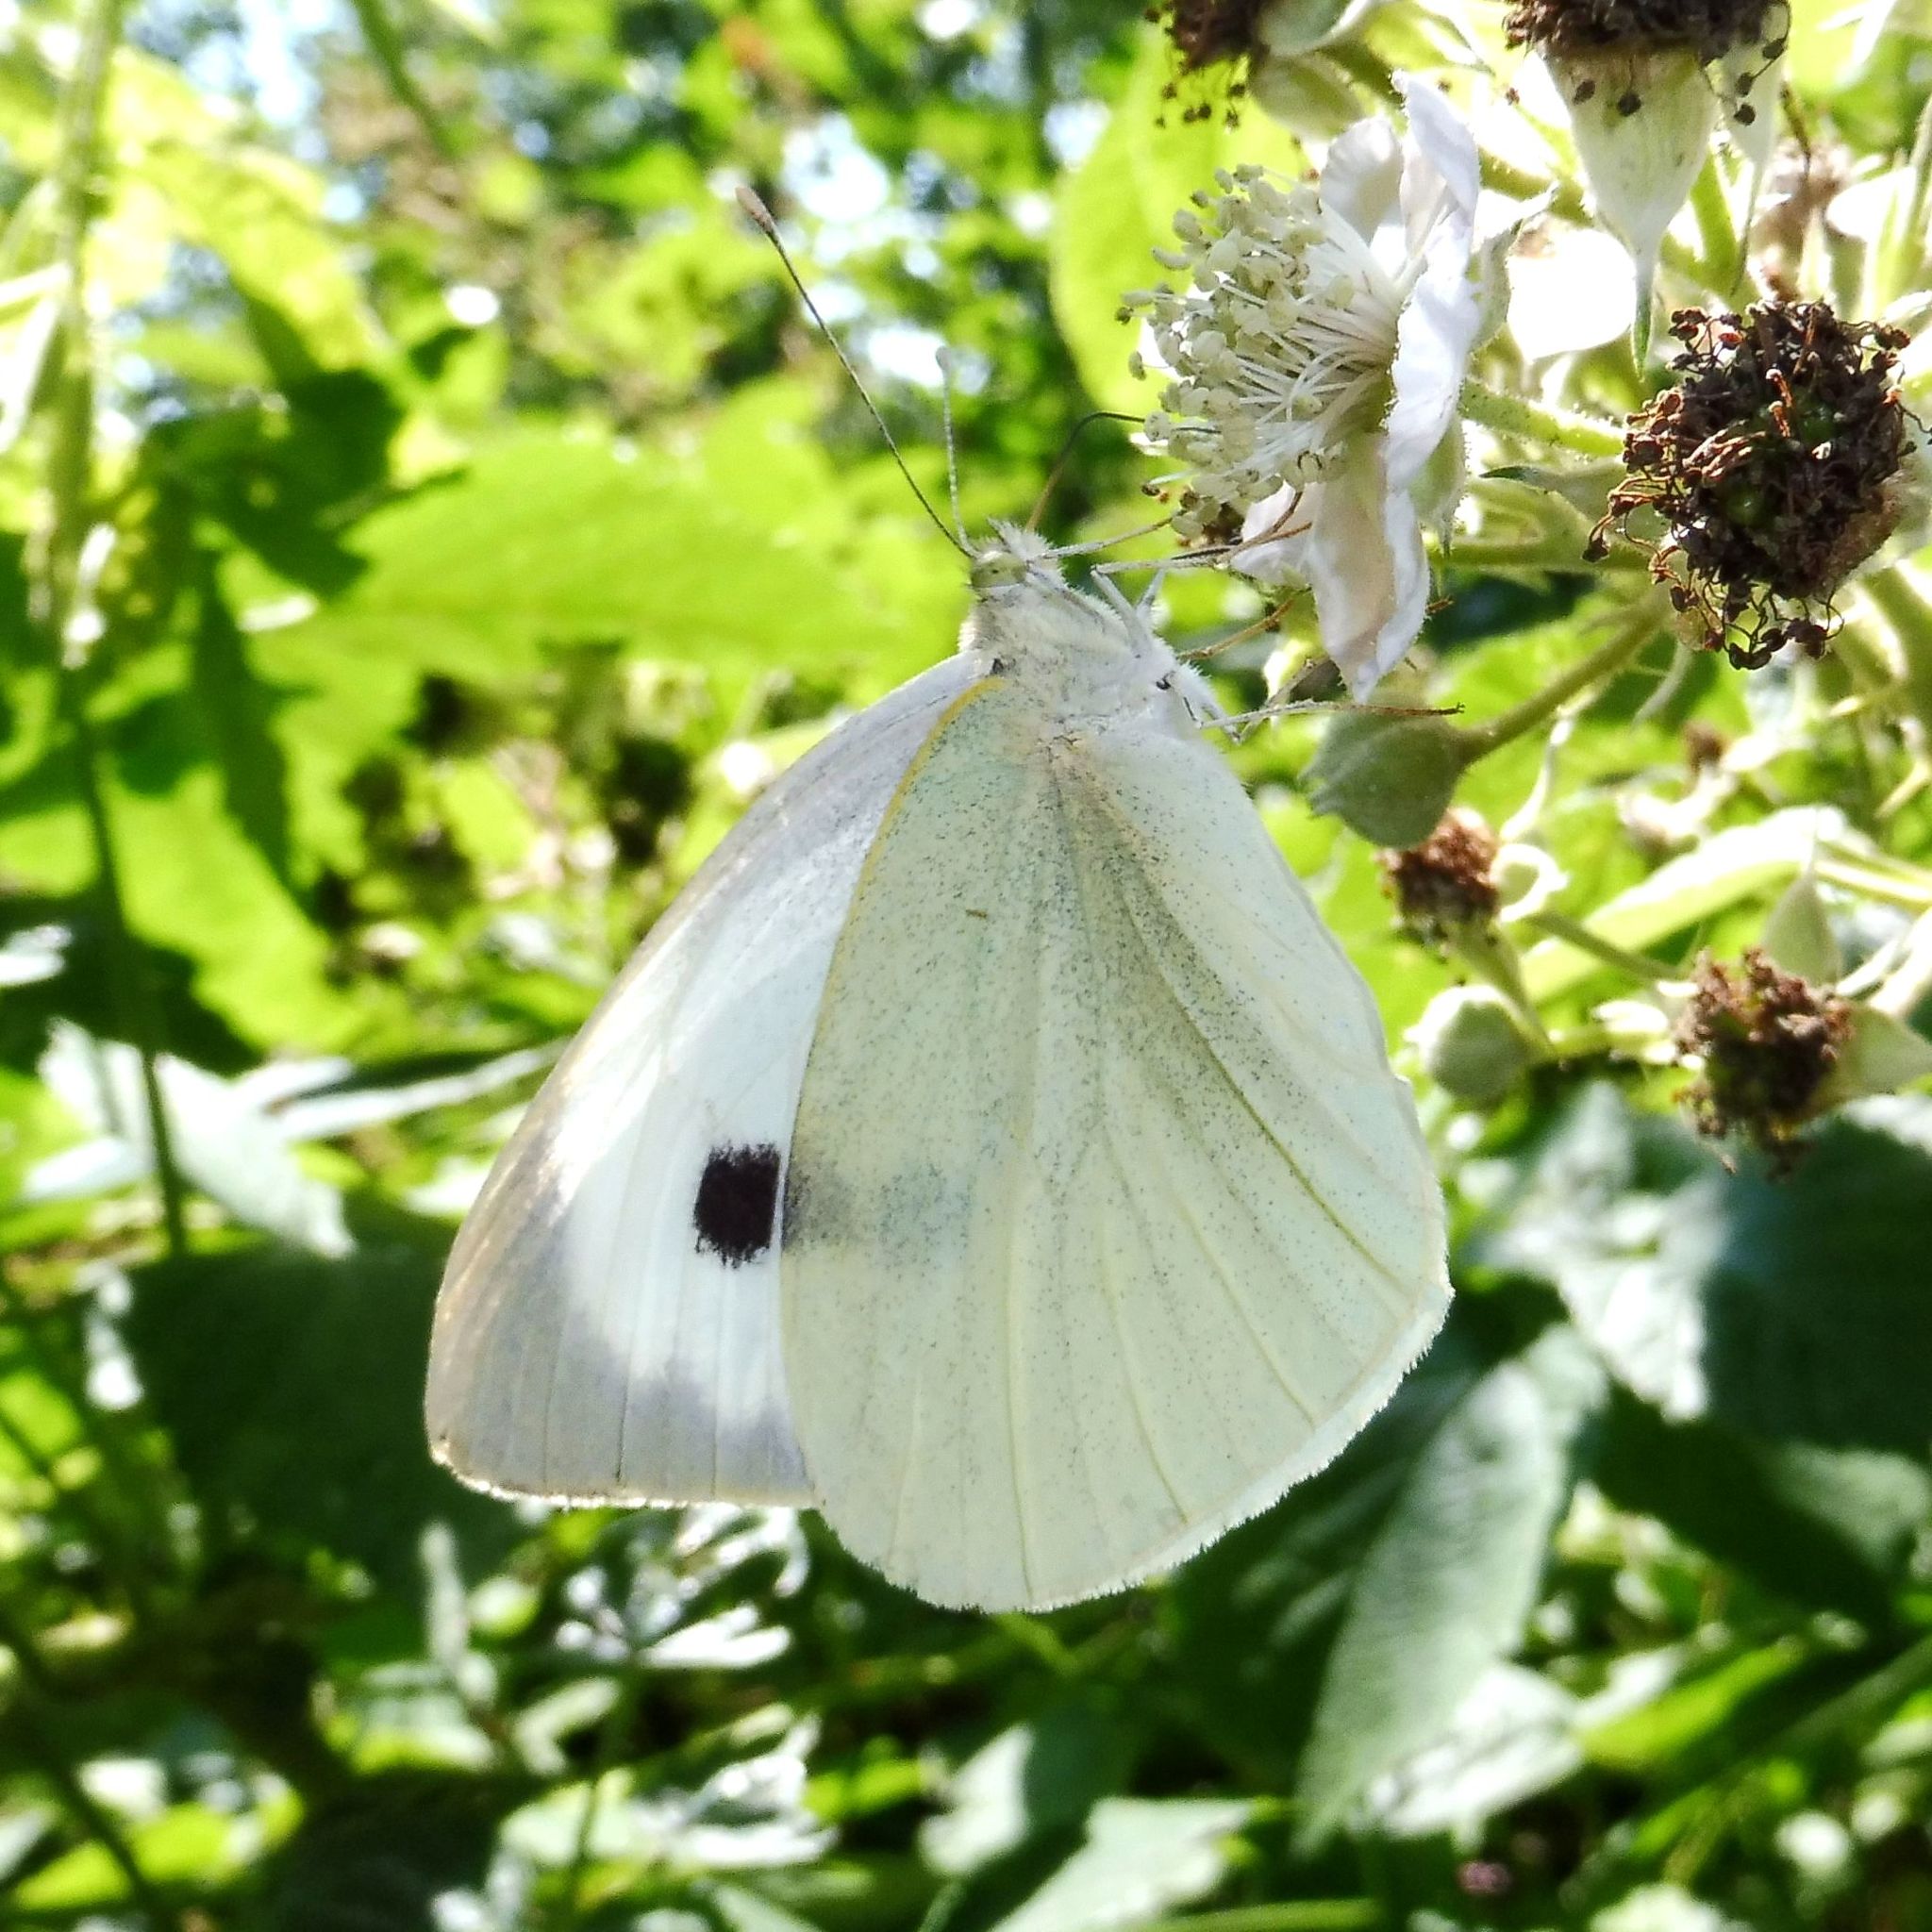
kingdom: Animalia
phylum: Arthropoda
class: Insecta
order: Lepidoptera
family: Pieridae
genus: Pieris
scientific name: Pieris brassicae
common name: Large white
